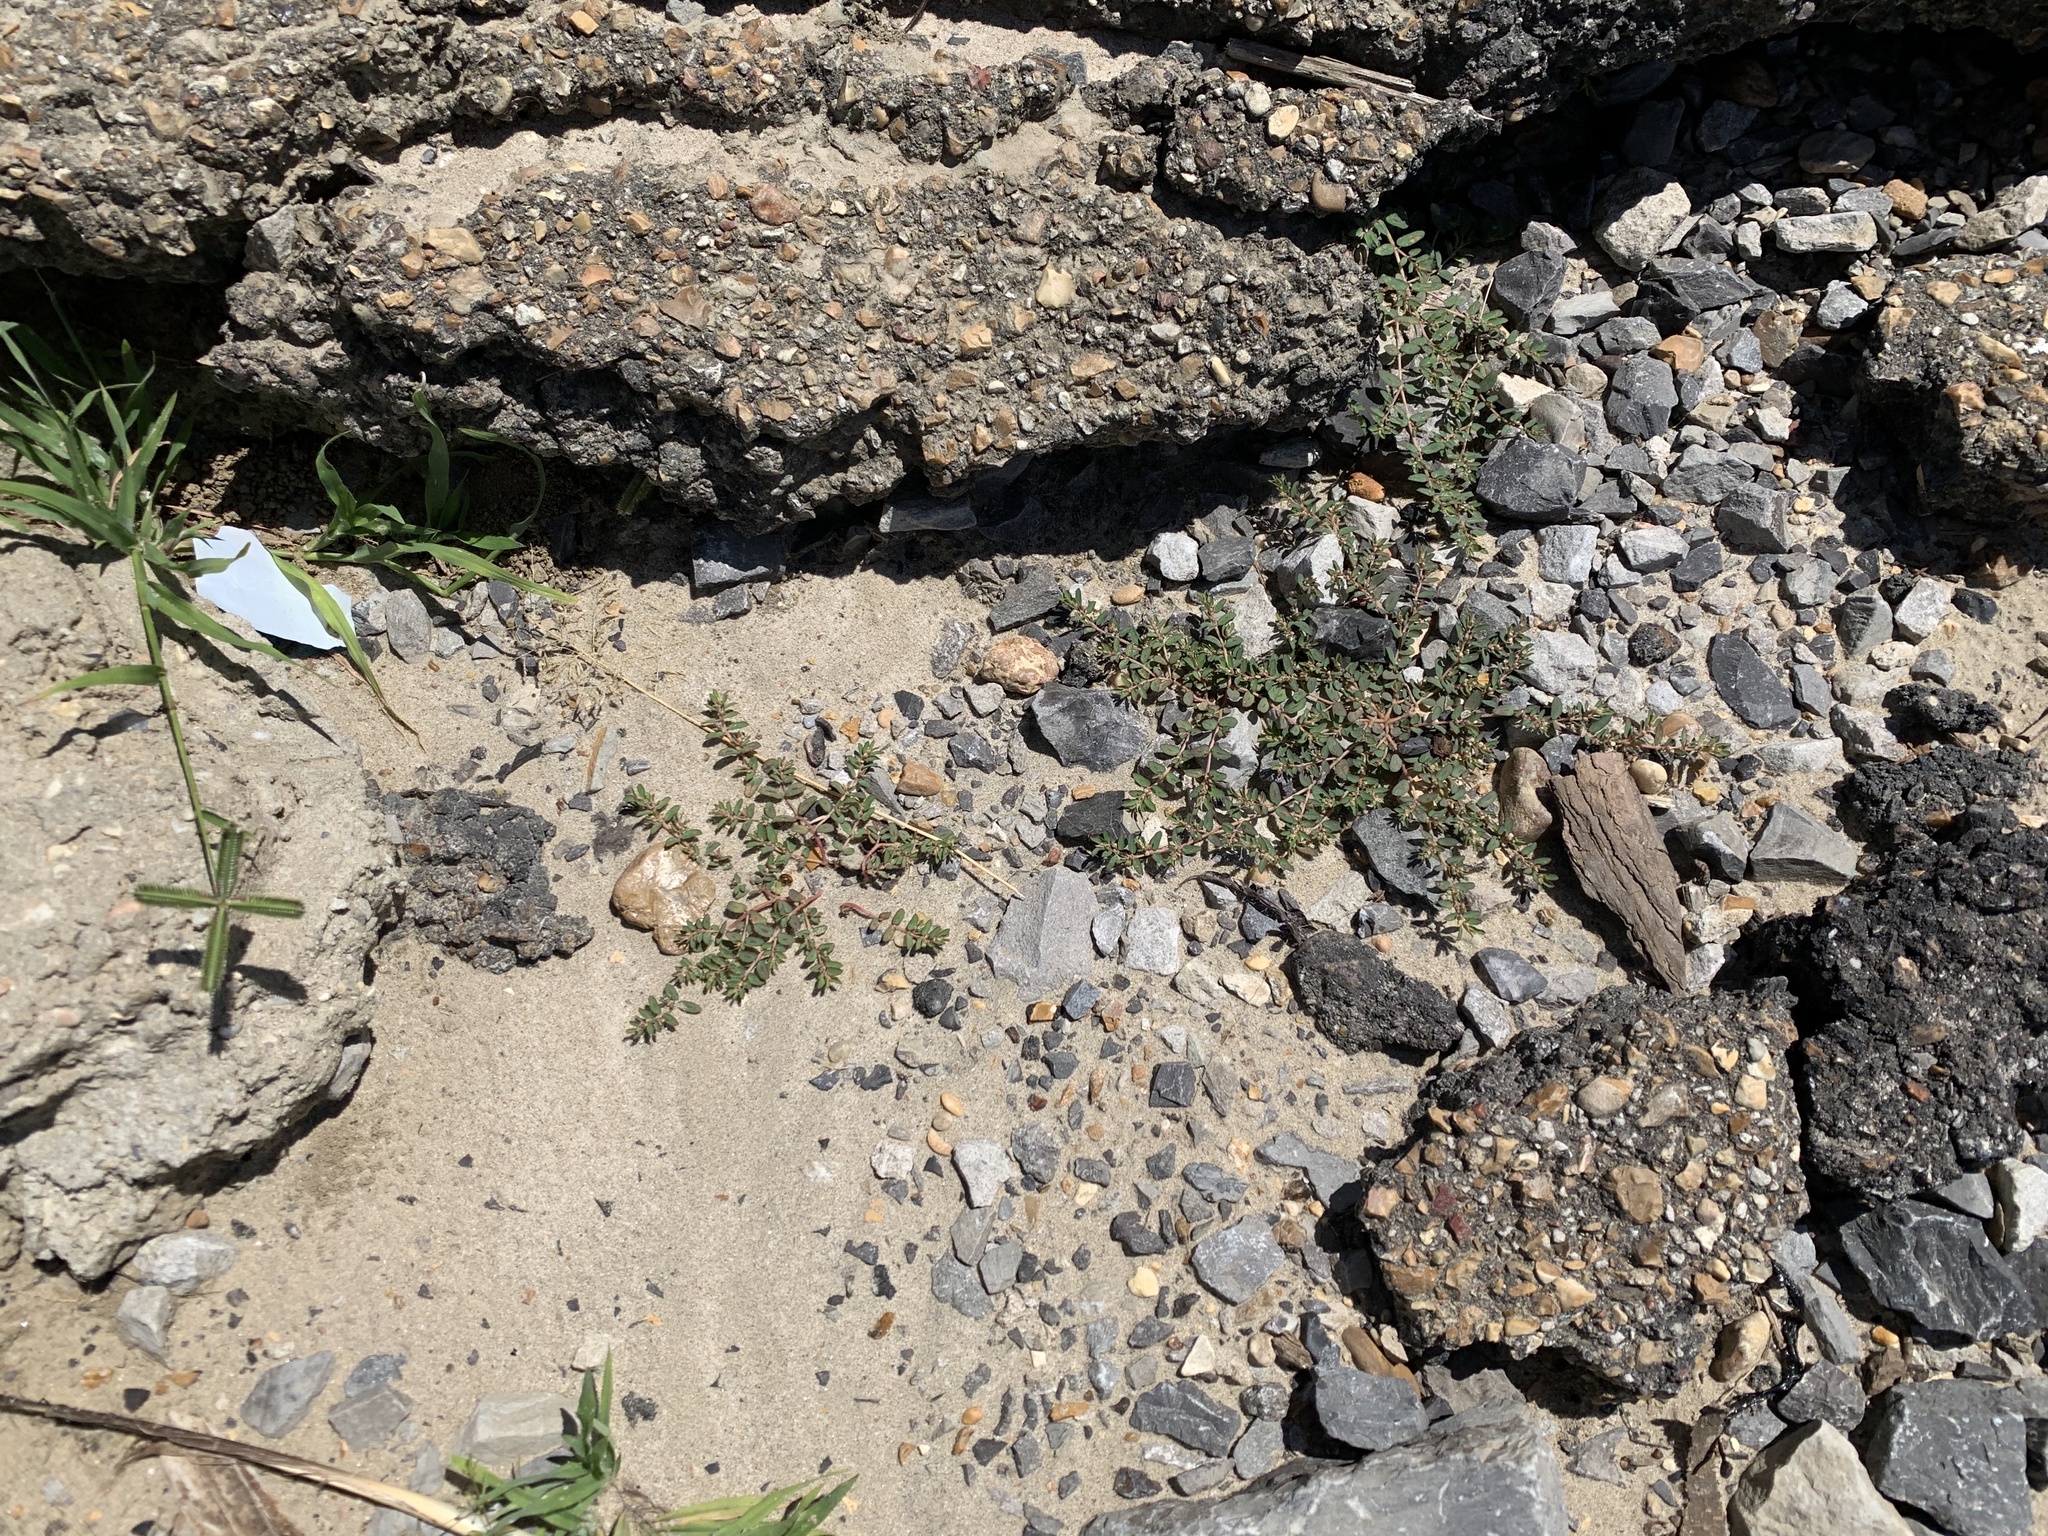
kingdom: Plantae
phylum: Tracheophyta
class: Magnoliopsida
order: Malpighiales
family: Euphorbiaceae
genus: Euphorbia
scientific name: Euphorbia maculata
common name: Spotted spurge
